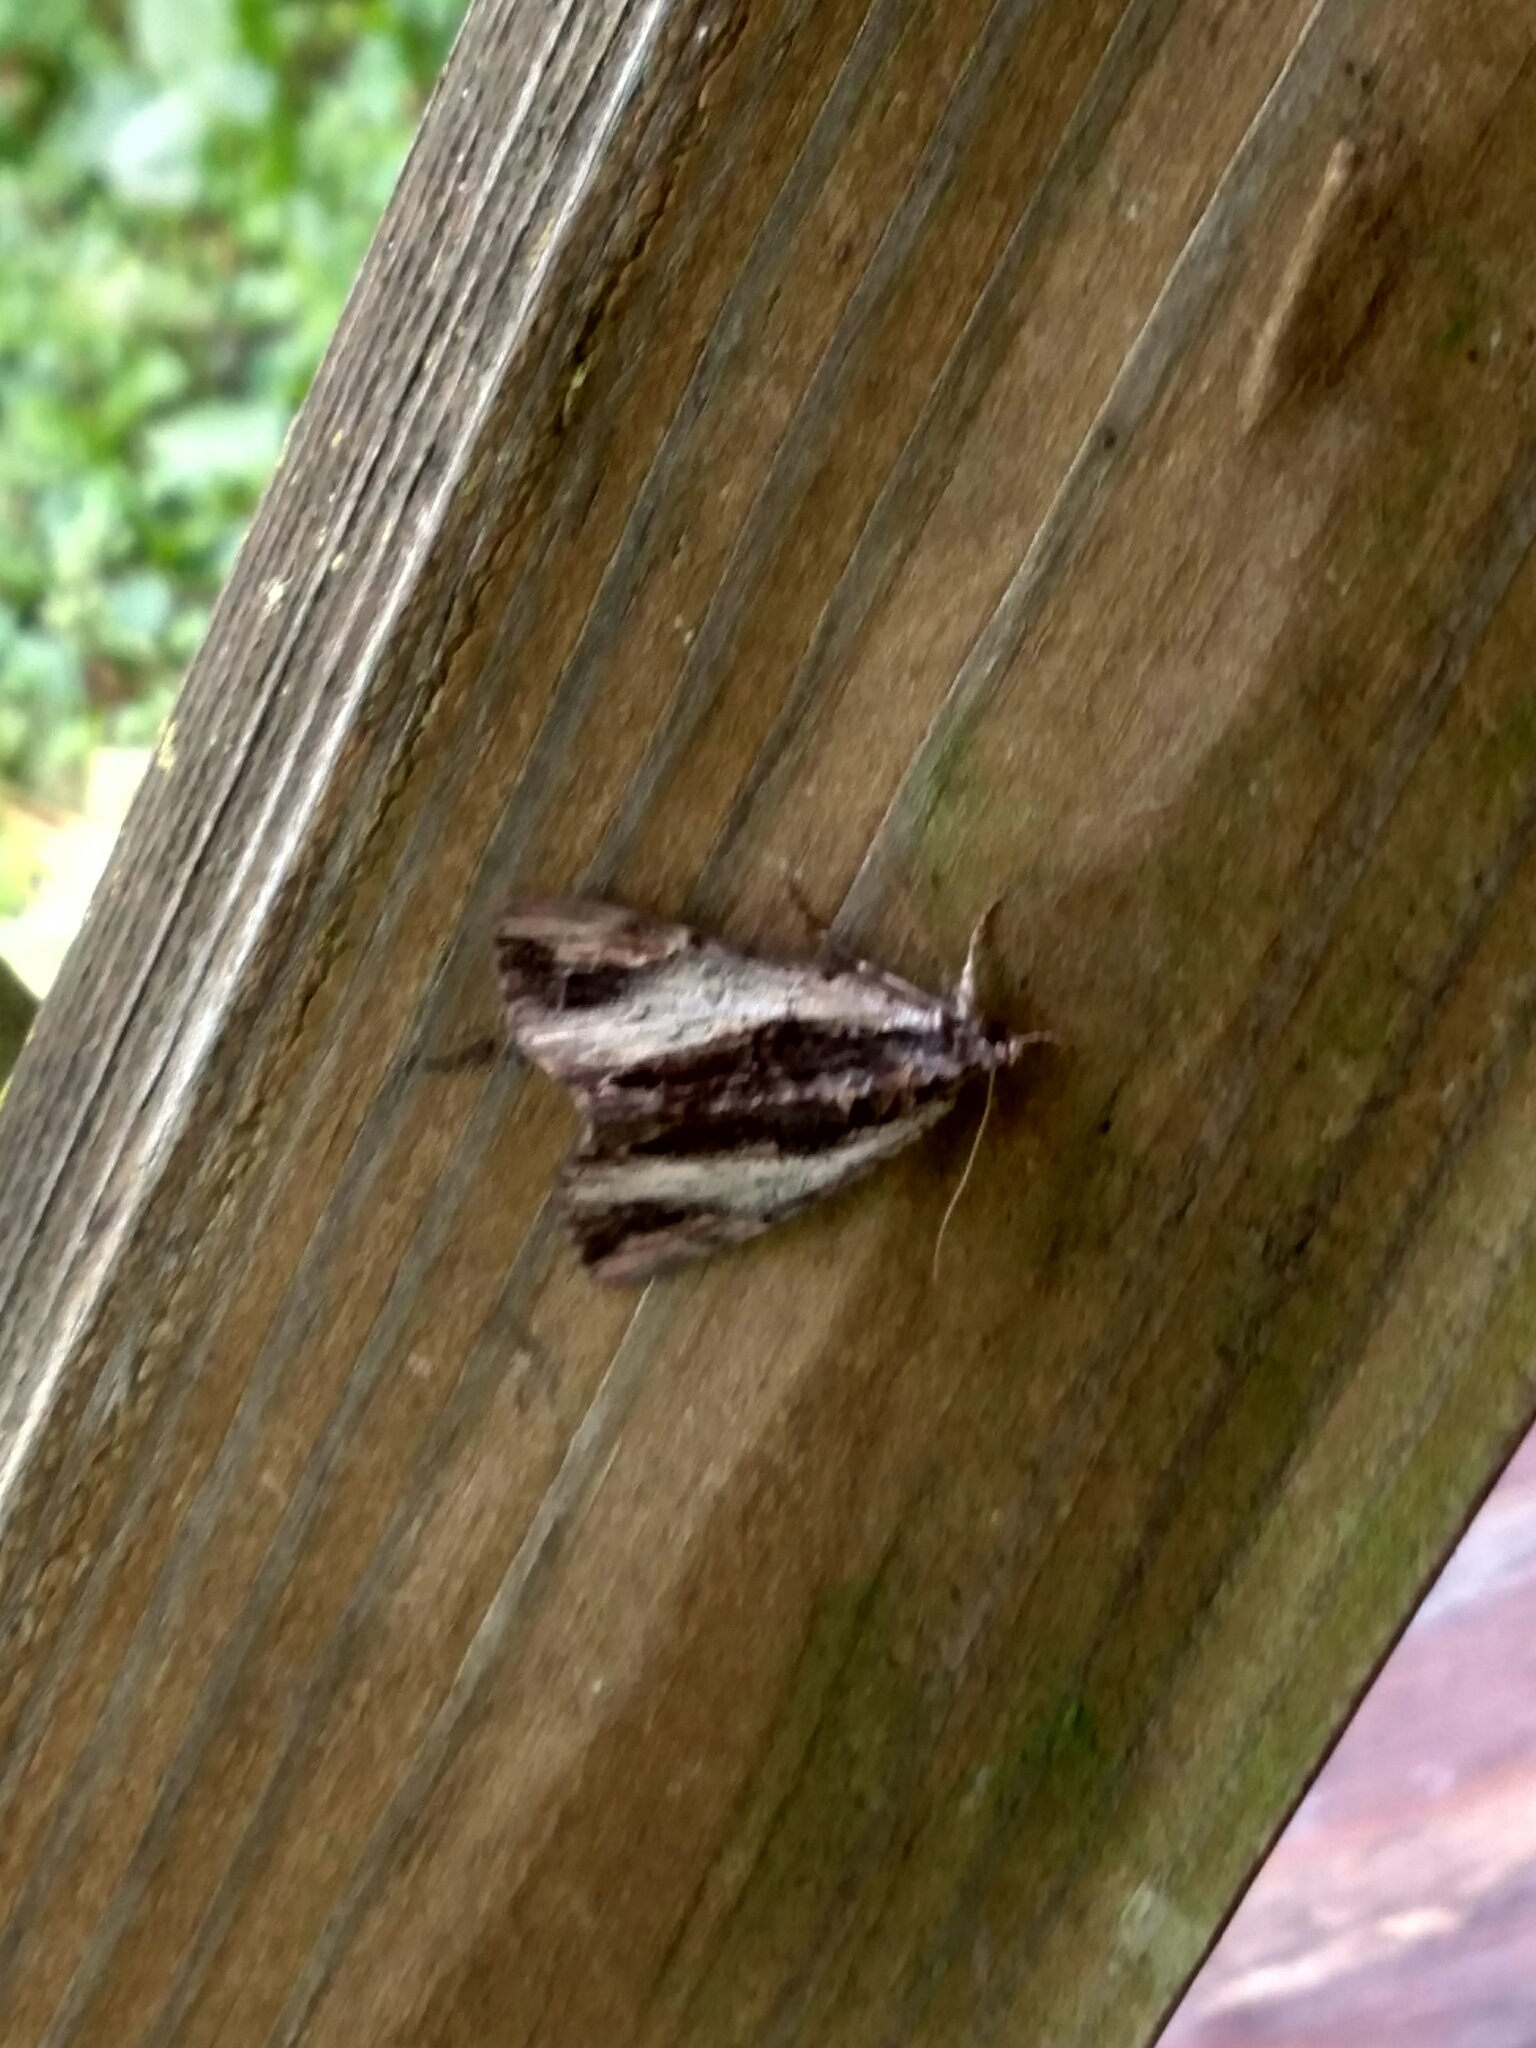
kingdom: Animalia
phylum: Arthropoda
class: Insecta
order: Lepidoptera
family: Erebidae
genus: Catocala
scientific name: Catocala ultronia
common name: Ultronia underwing
